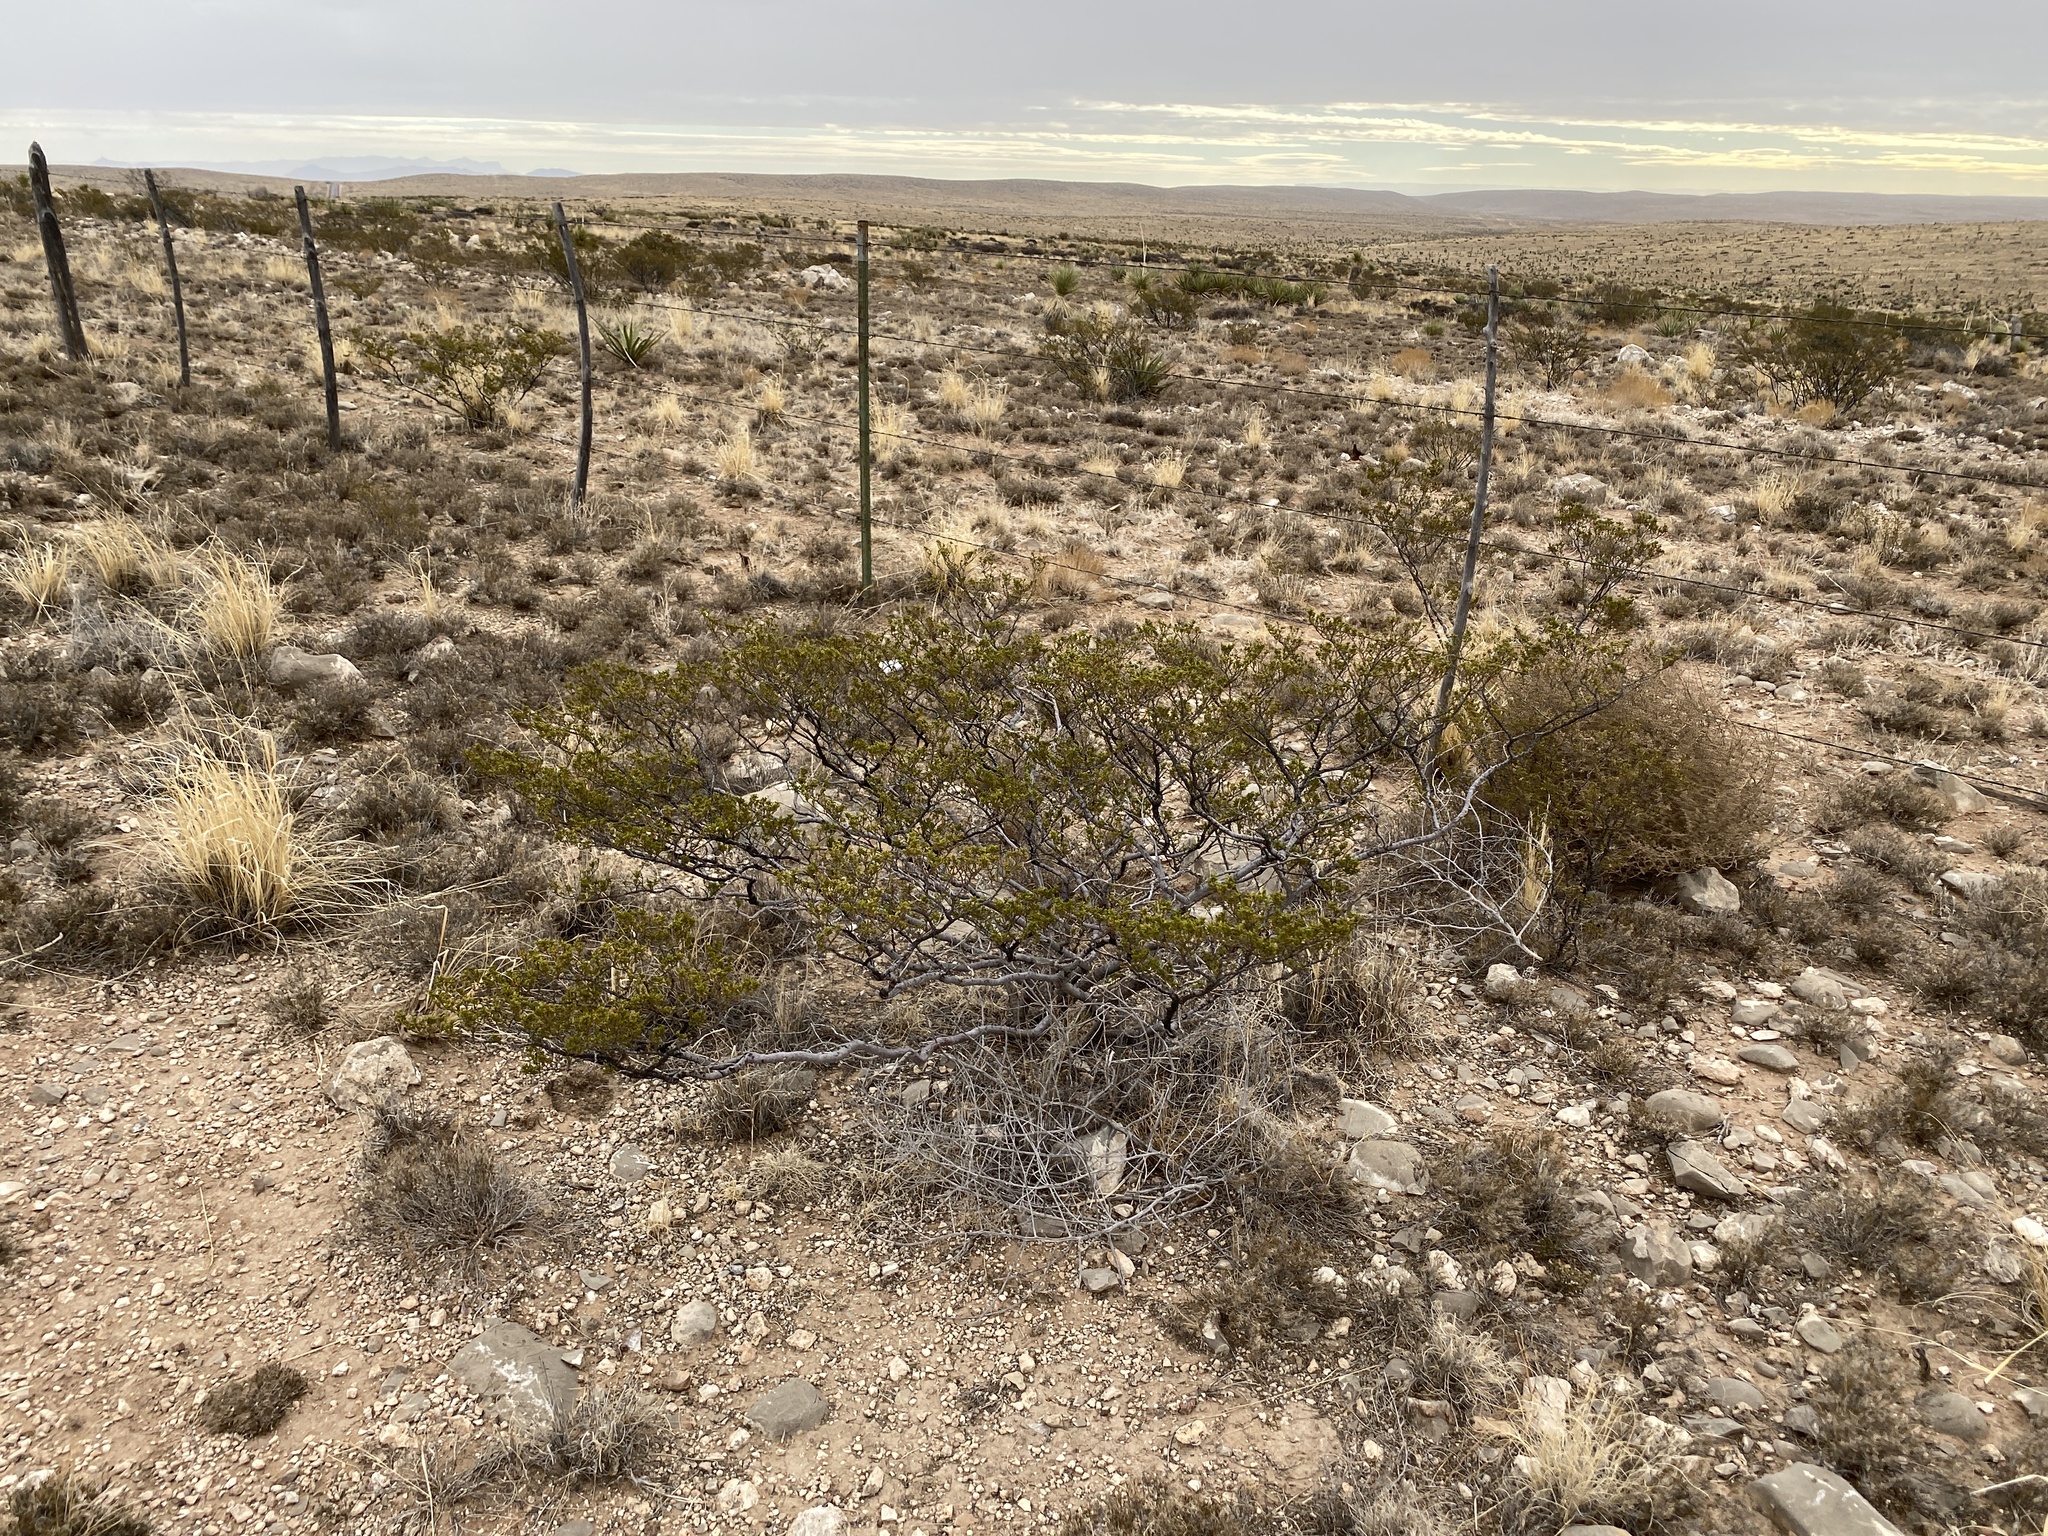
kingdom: Plantae
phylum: Tracheophyta
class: Magnoliopsida
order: Zygophyllales
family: Zygophyllaceae
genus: Larrea
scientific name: Larrea tridentata
